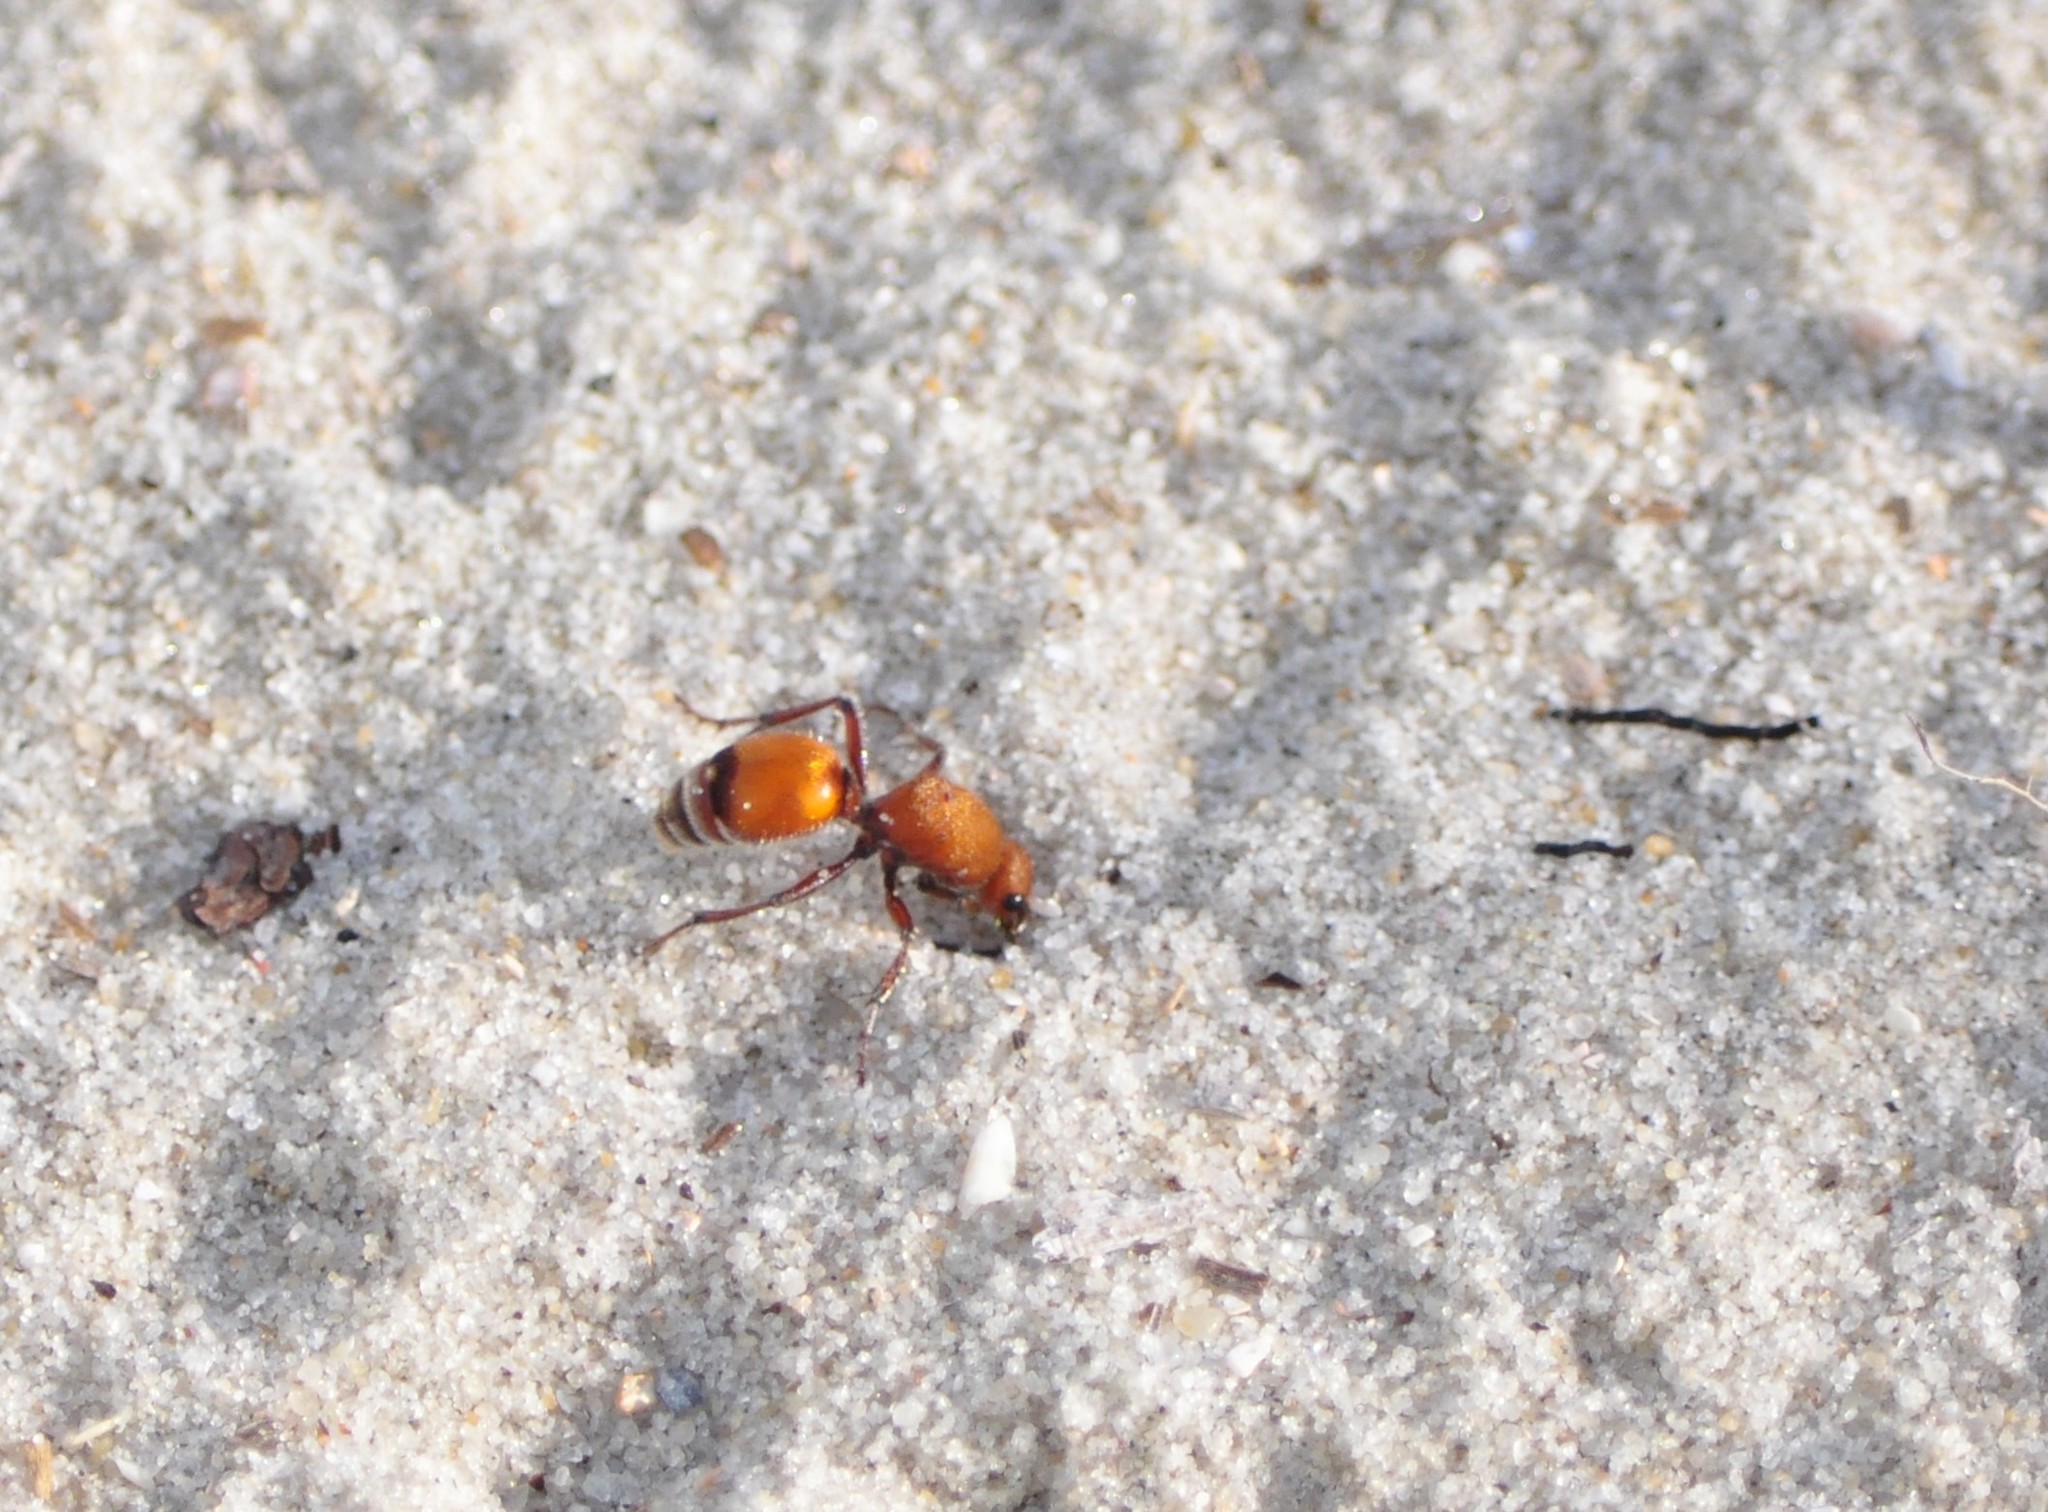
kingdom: Animalia
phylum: Arthropoda
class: Insecta
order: Hymenoptera
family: Mutillidae
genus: Dasymutilla
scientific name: Dasymutilla
